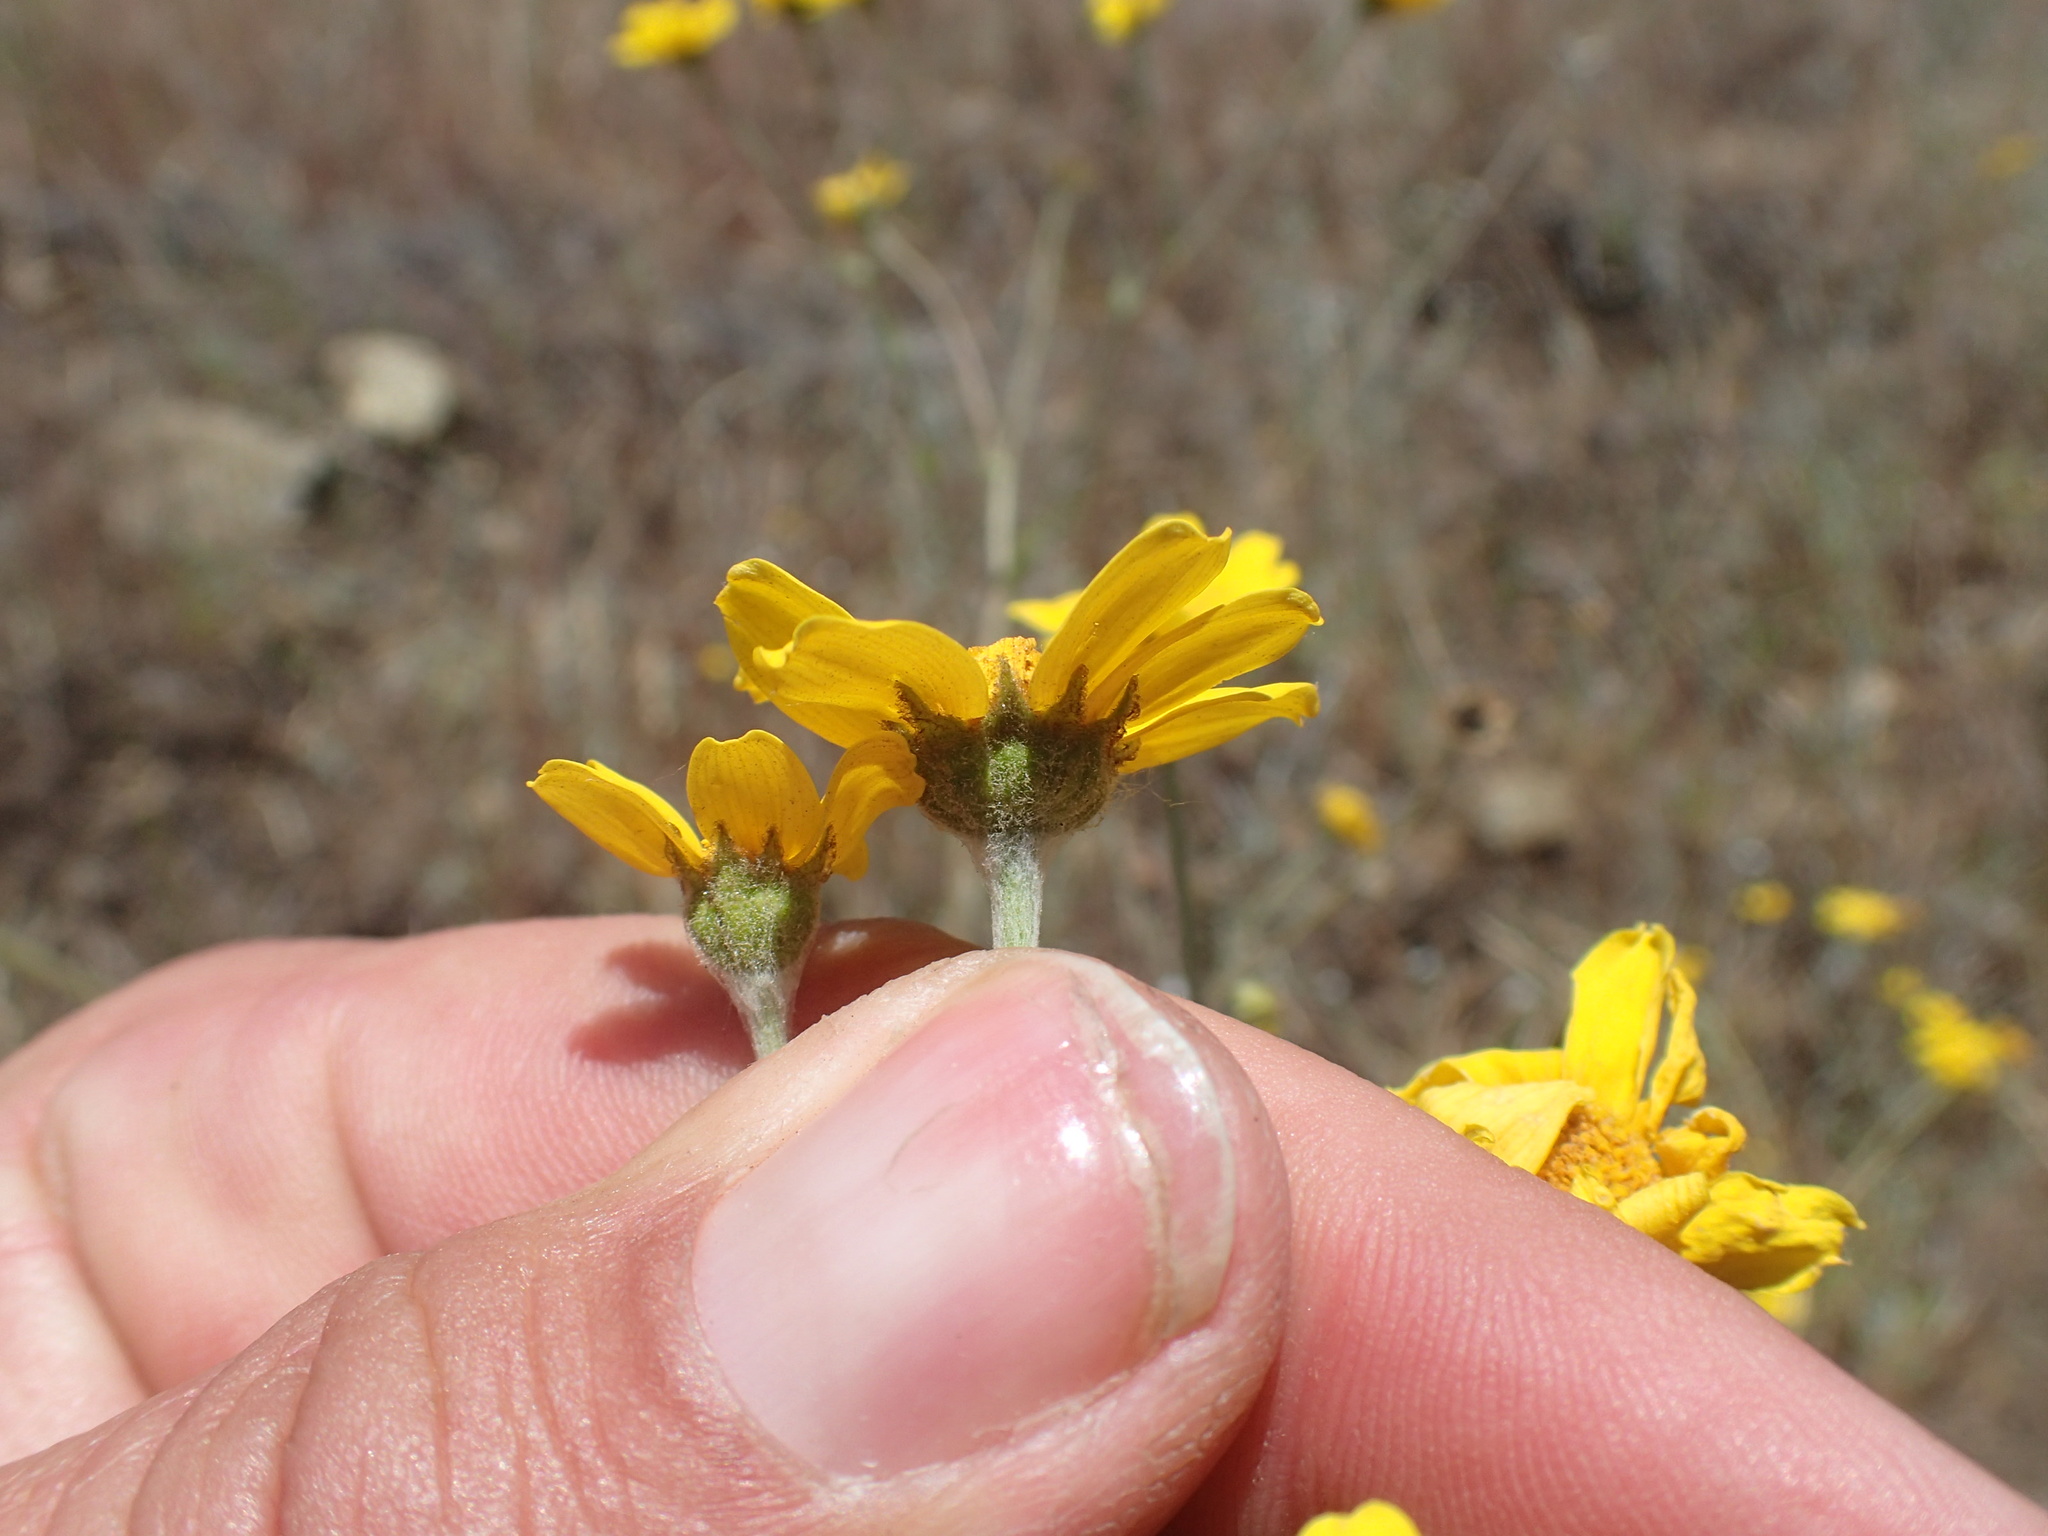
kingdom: Plantae
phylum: Tracheophyta
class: Magnoliopsida
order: Asterales
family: Asteraceae
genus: Monolopia
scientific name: Monolopia gracilens
